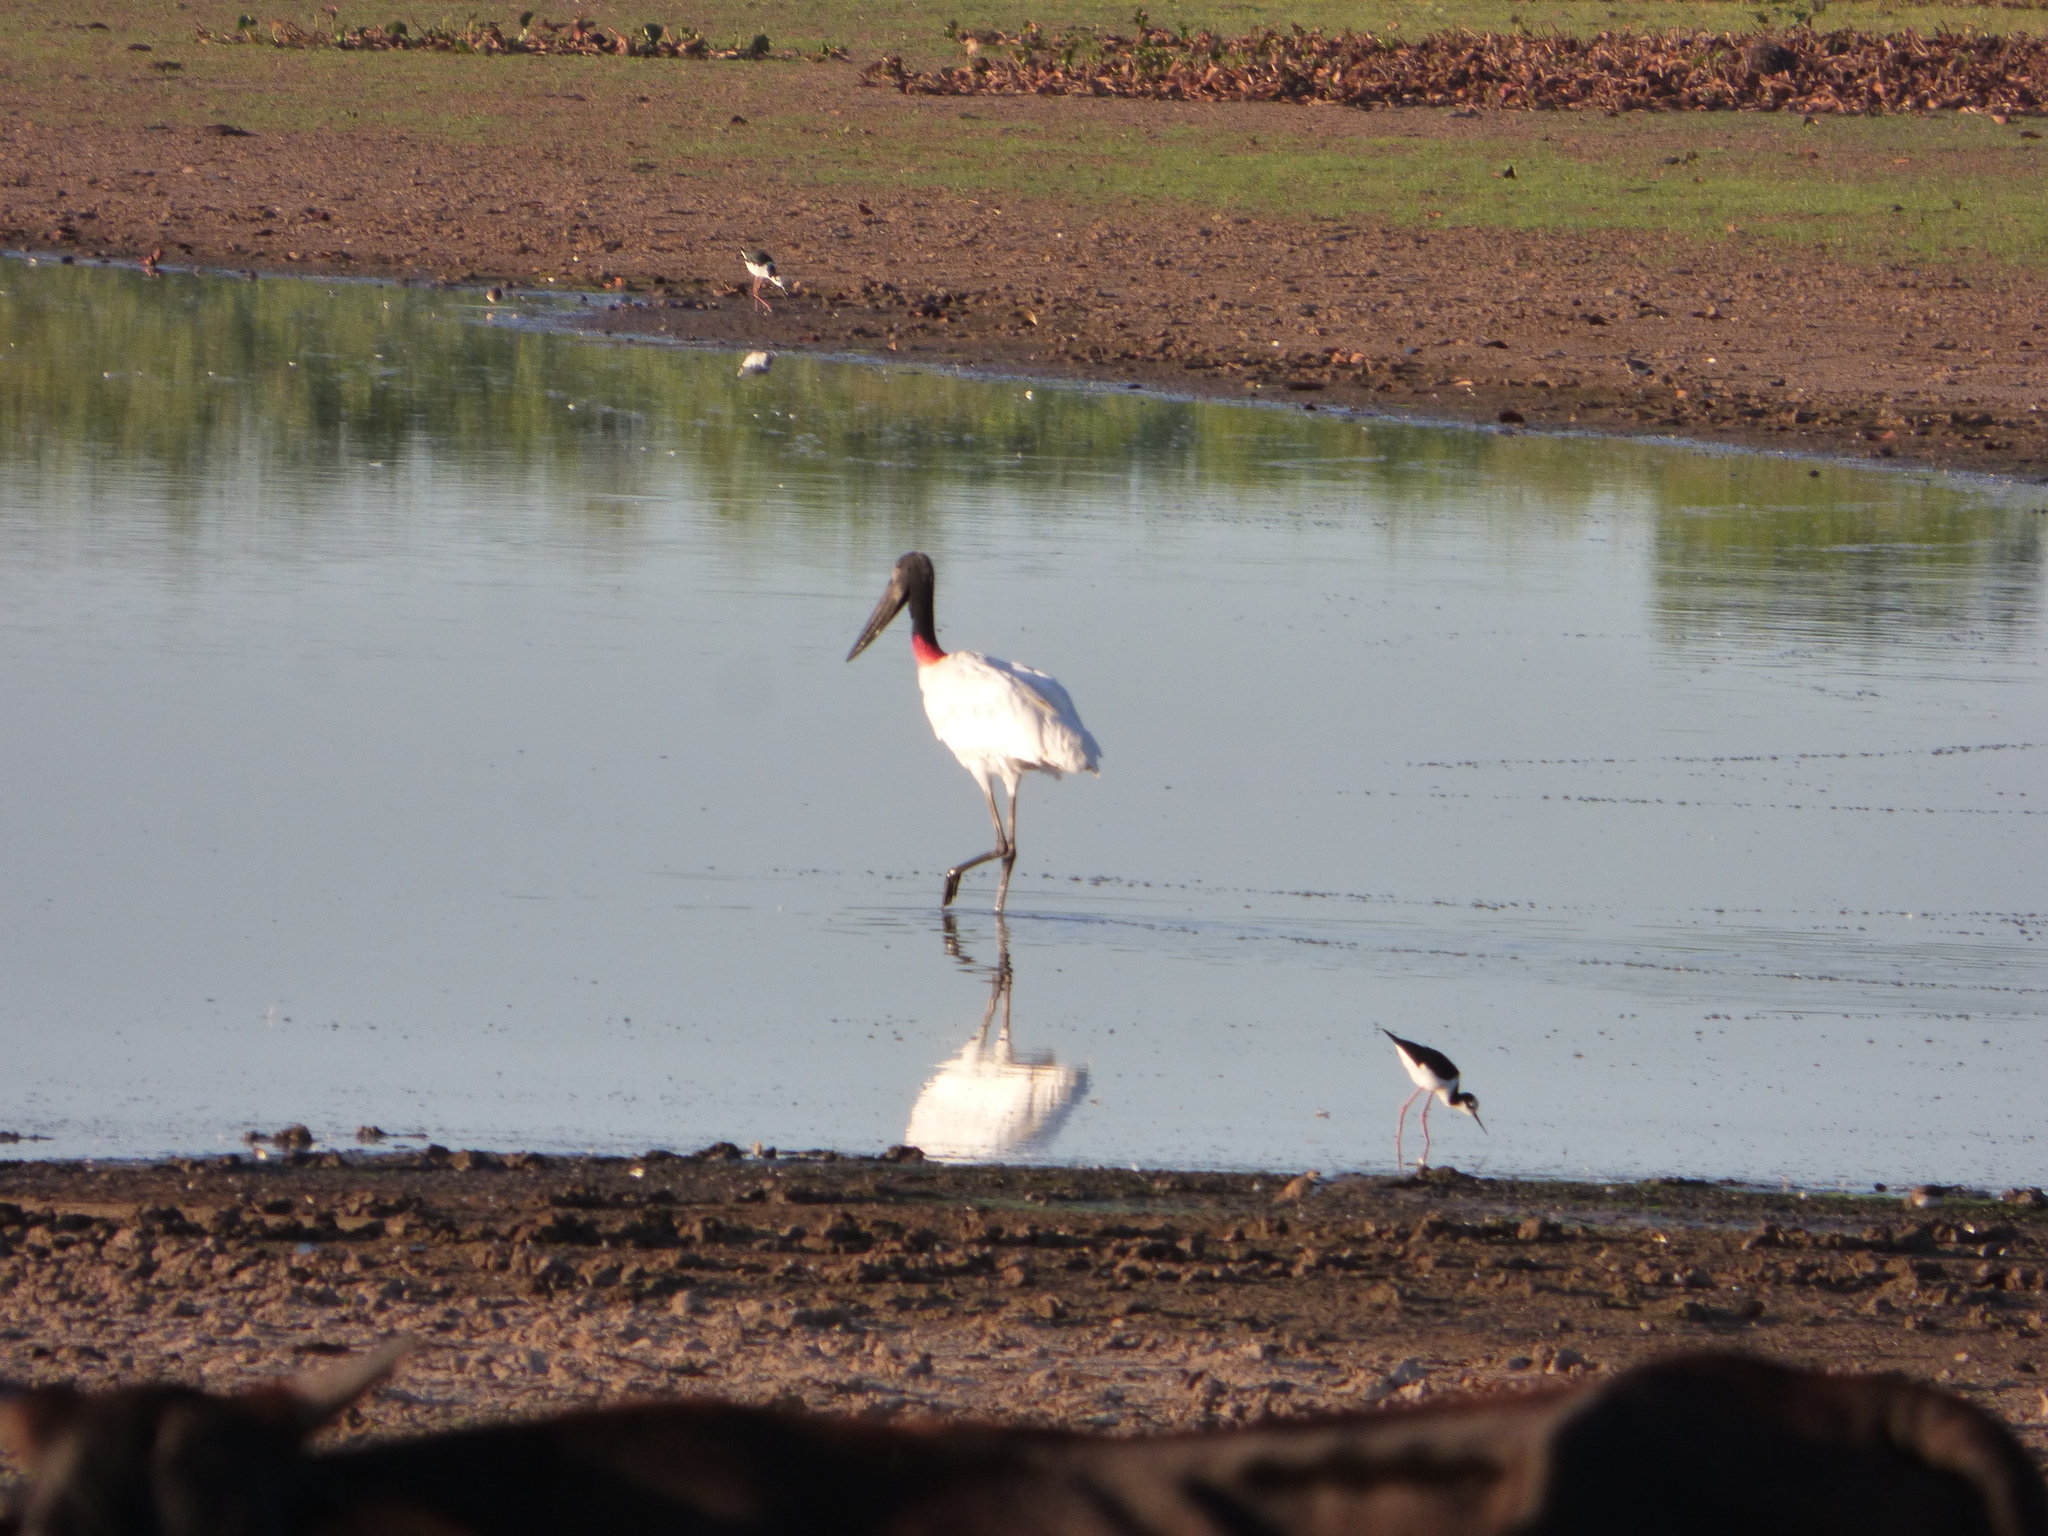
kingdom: Animalia
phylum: Chordata
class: Aves
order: Ciconiiformes
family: Ciconiidae
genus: Jabiru
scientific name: Jabiru mycteria
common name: Jabiru
